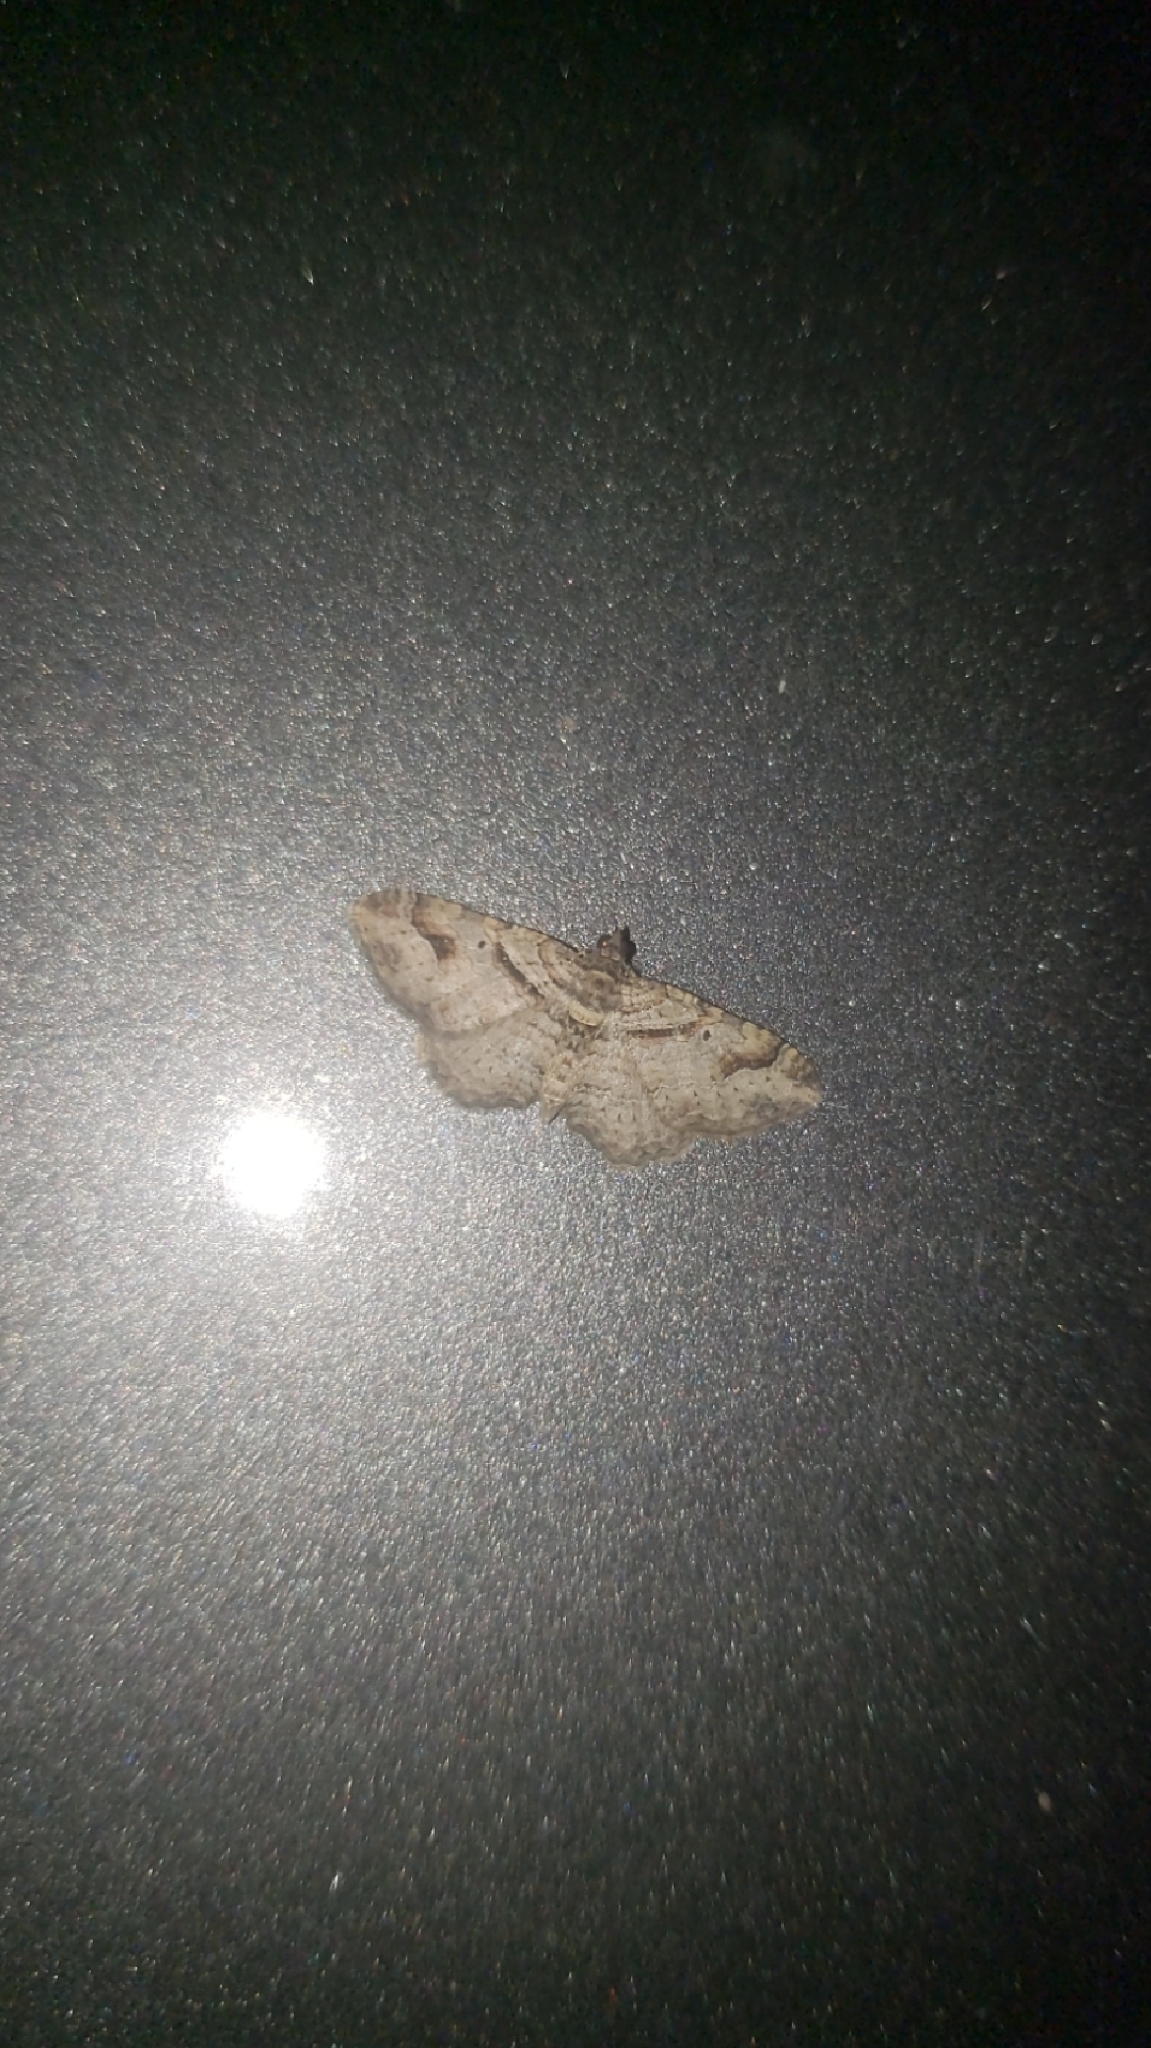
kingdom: Animalia
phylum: Arthropoda
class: Insecta
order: Lepidoptera
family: Geometridae
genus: Costaconvexa
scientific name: Costaconvexa centrostrigaria
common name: Bent-line carpet
